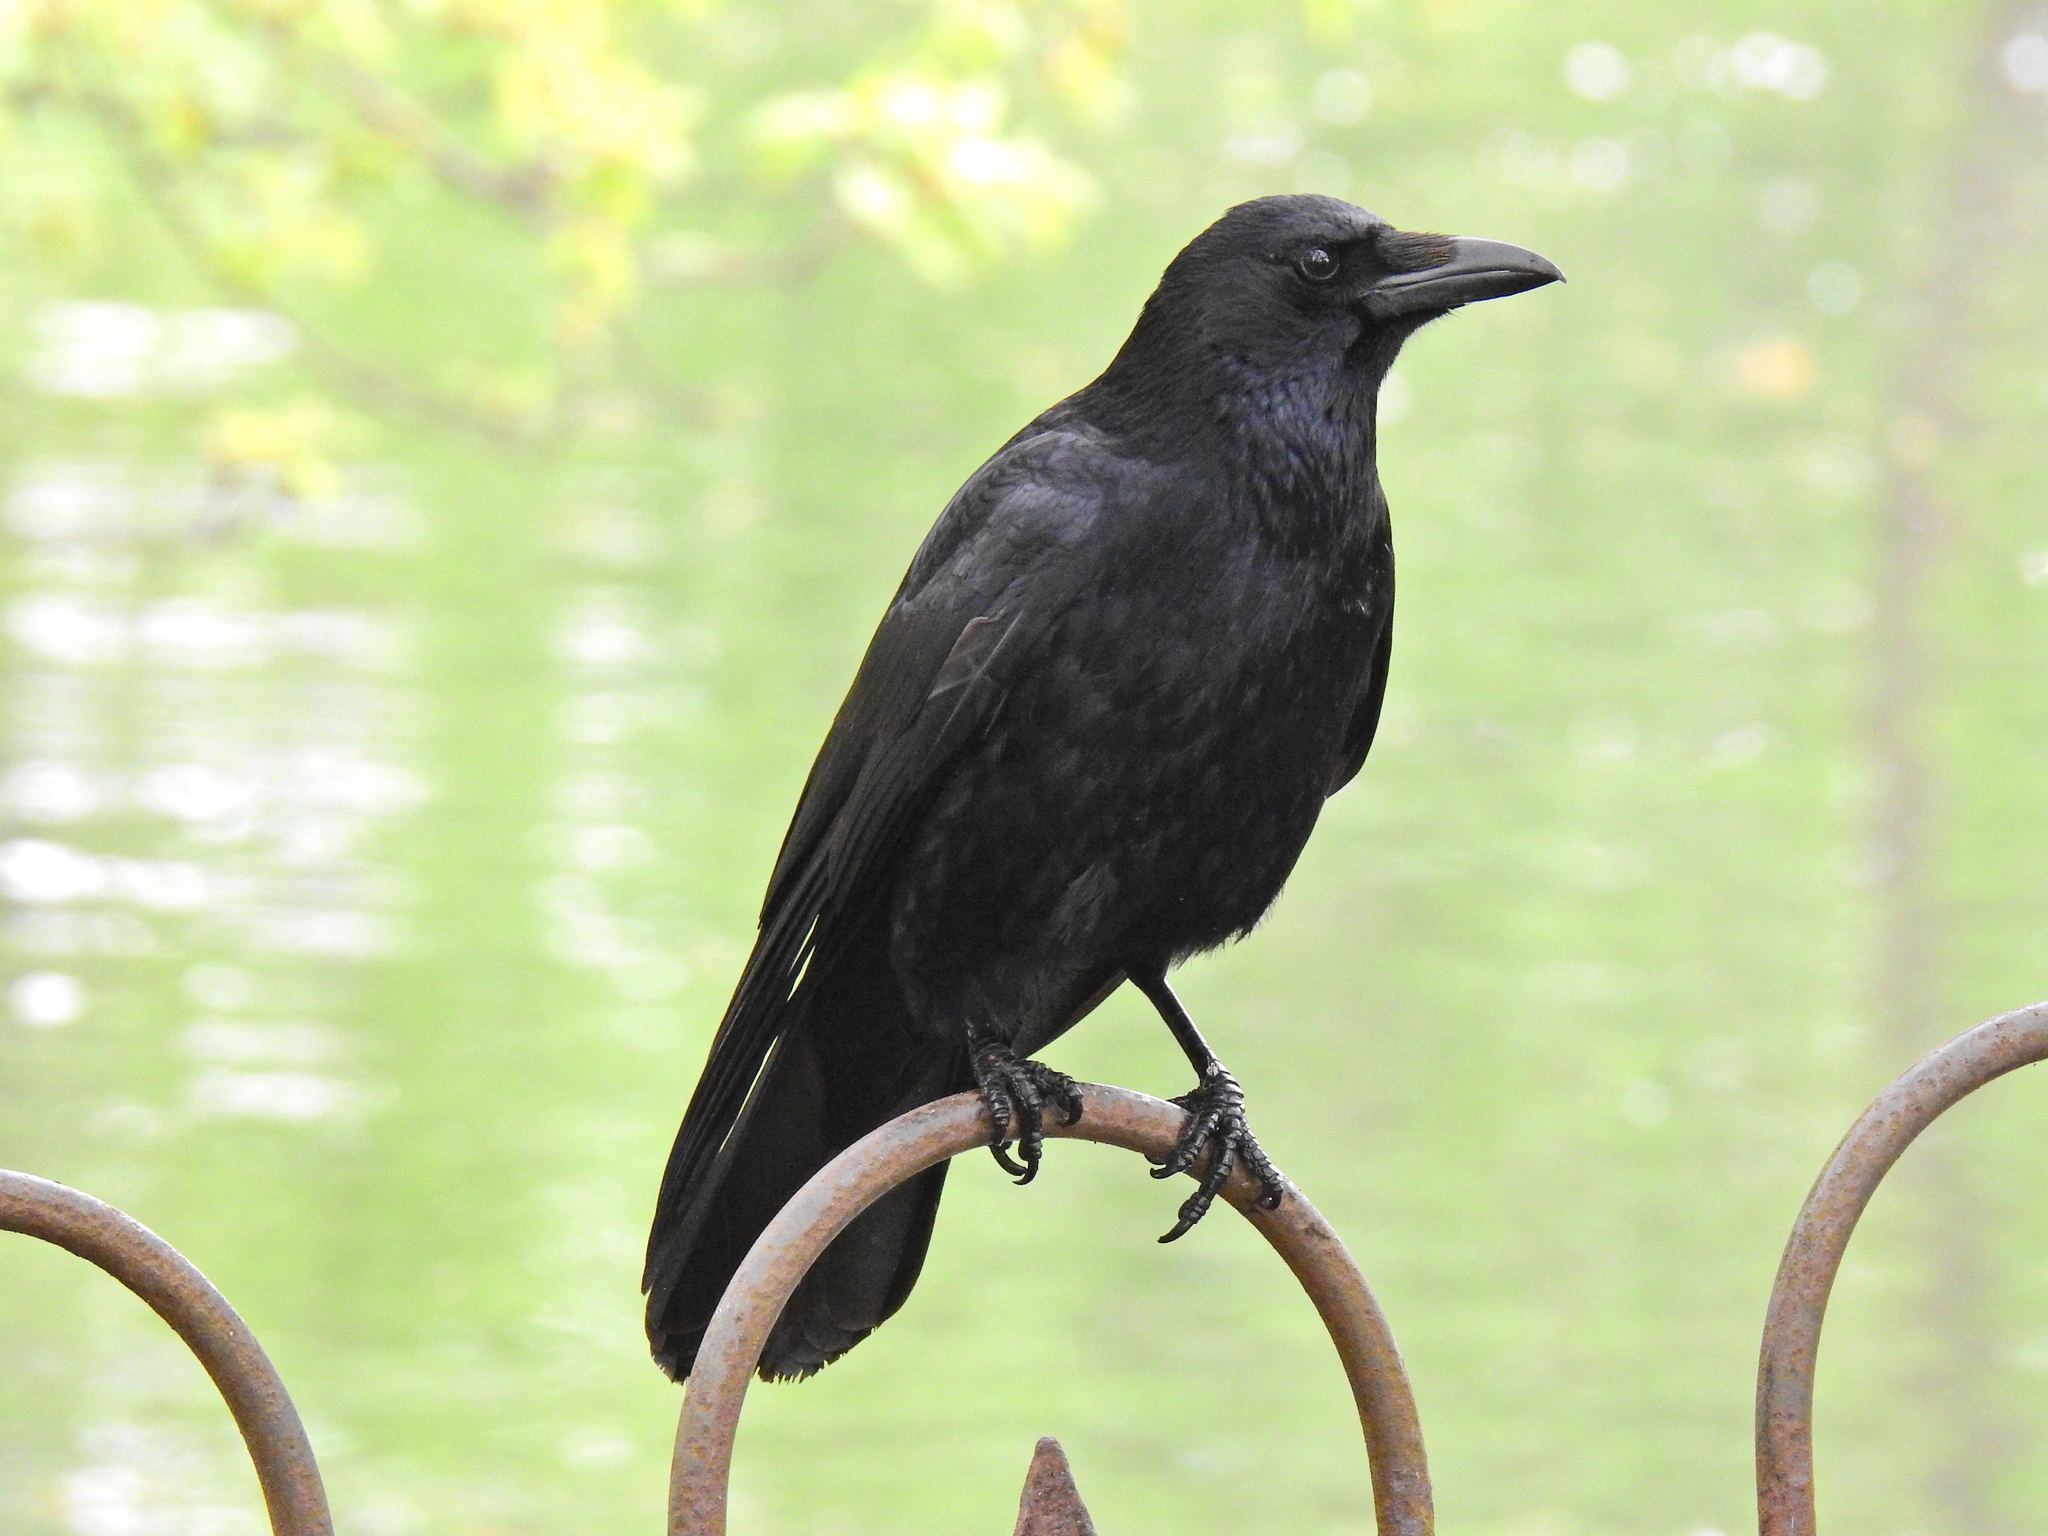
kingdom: Animalia
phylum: Chordata
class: Aves
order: Passeriformes
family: Corvidae
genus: Corvus
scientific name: Corvus corone
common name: Carrion crow
